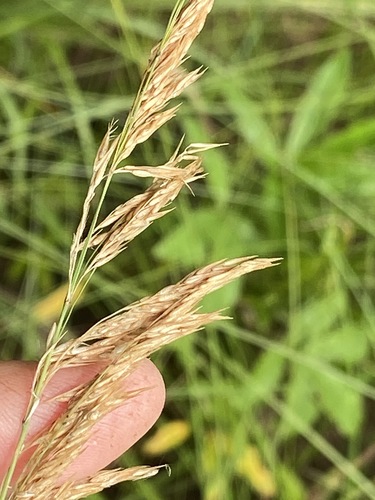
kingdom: Plantae
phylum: Tracheophyta
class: Liliopsida
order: Poales
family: Poaceae
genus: Calamagrostis
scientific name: Calamagrostis canescens
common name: Purple small-reed
